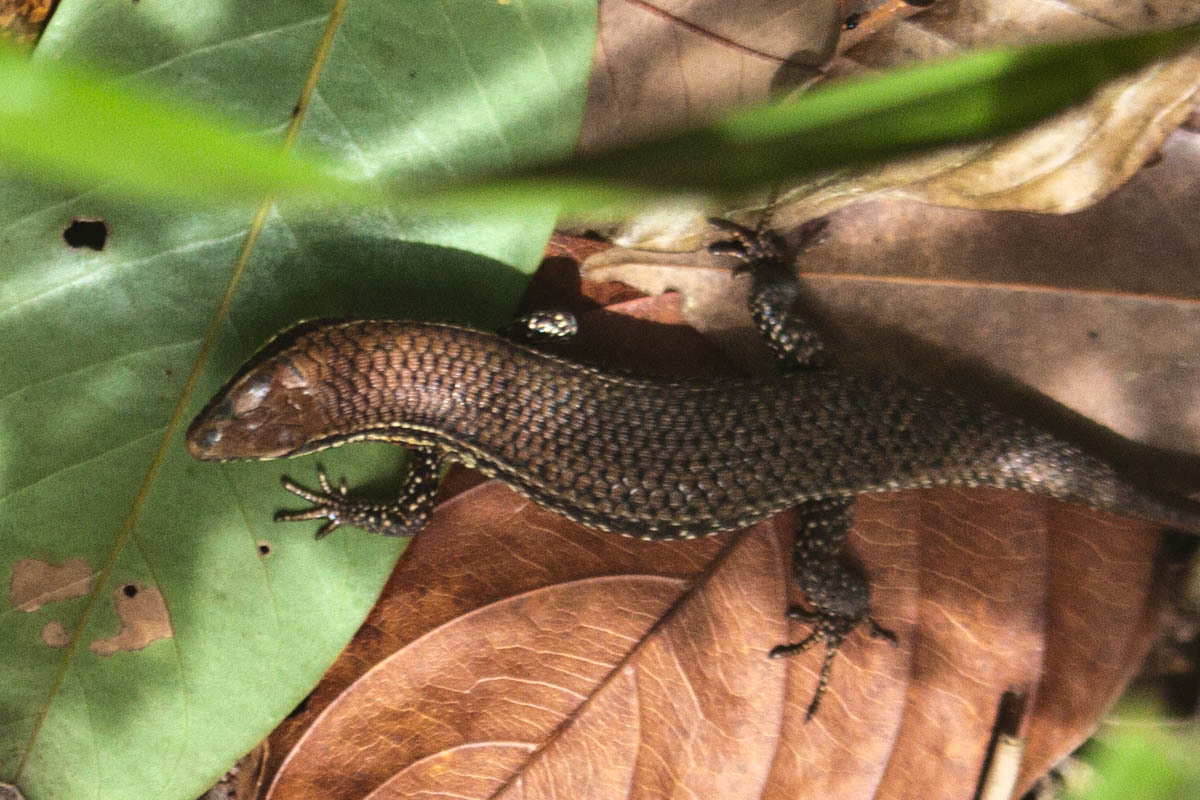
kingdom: Animalia
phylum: Chordata
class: Squamata
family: Scincidae
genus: Eutropis
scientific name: Eutropis macularia
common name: Bronze mabuya
